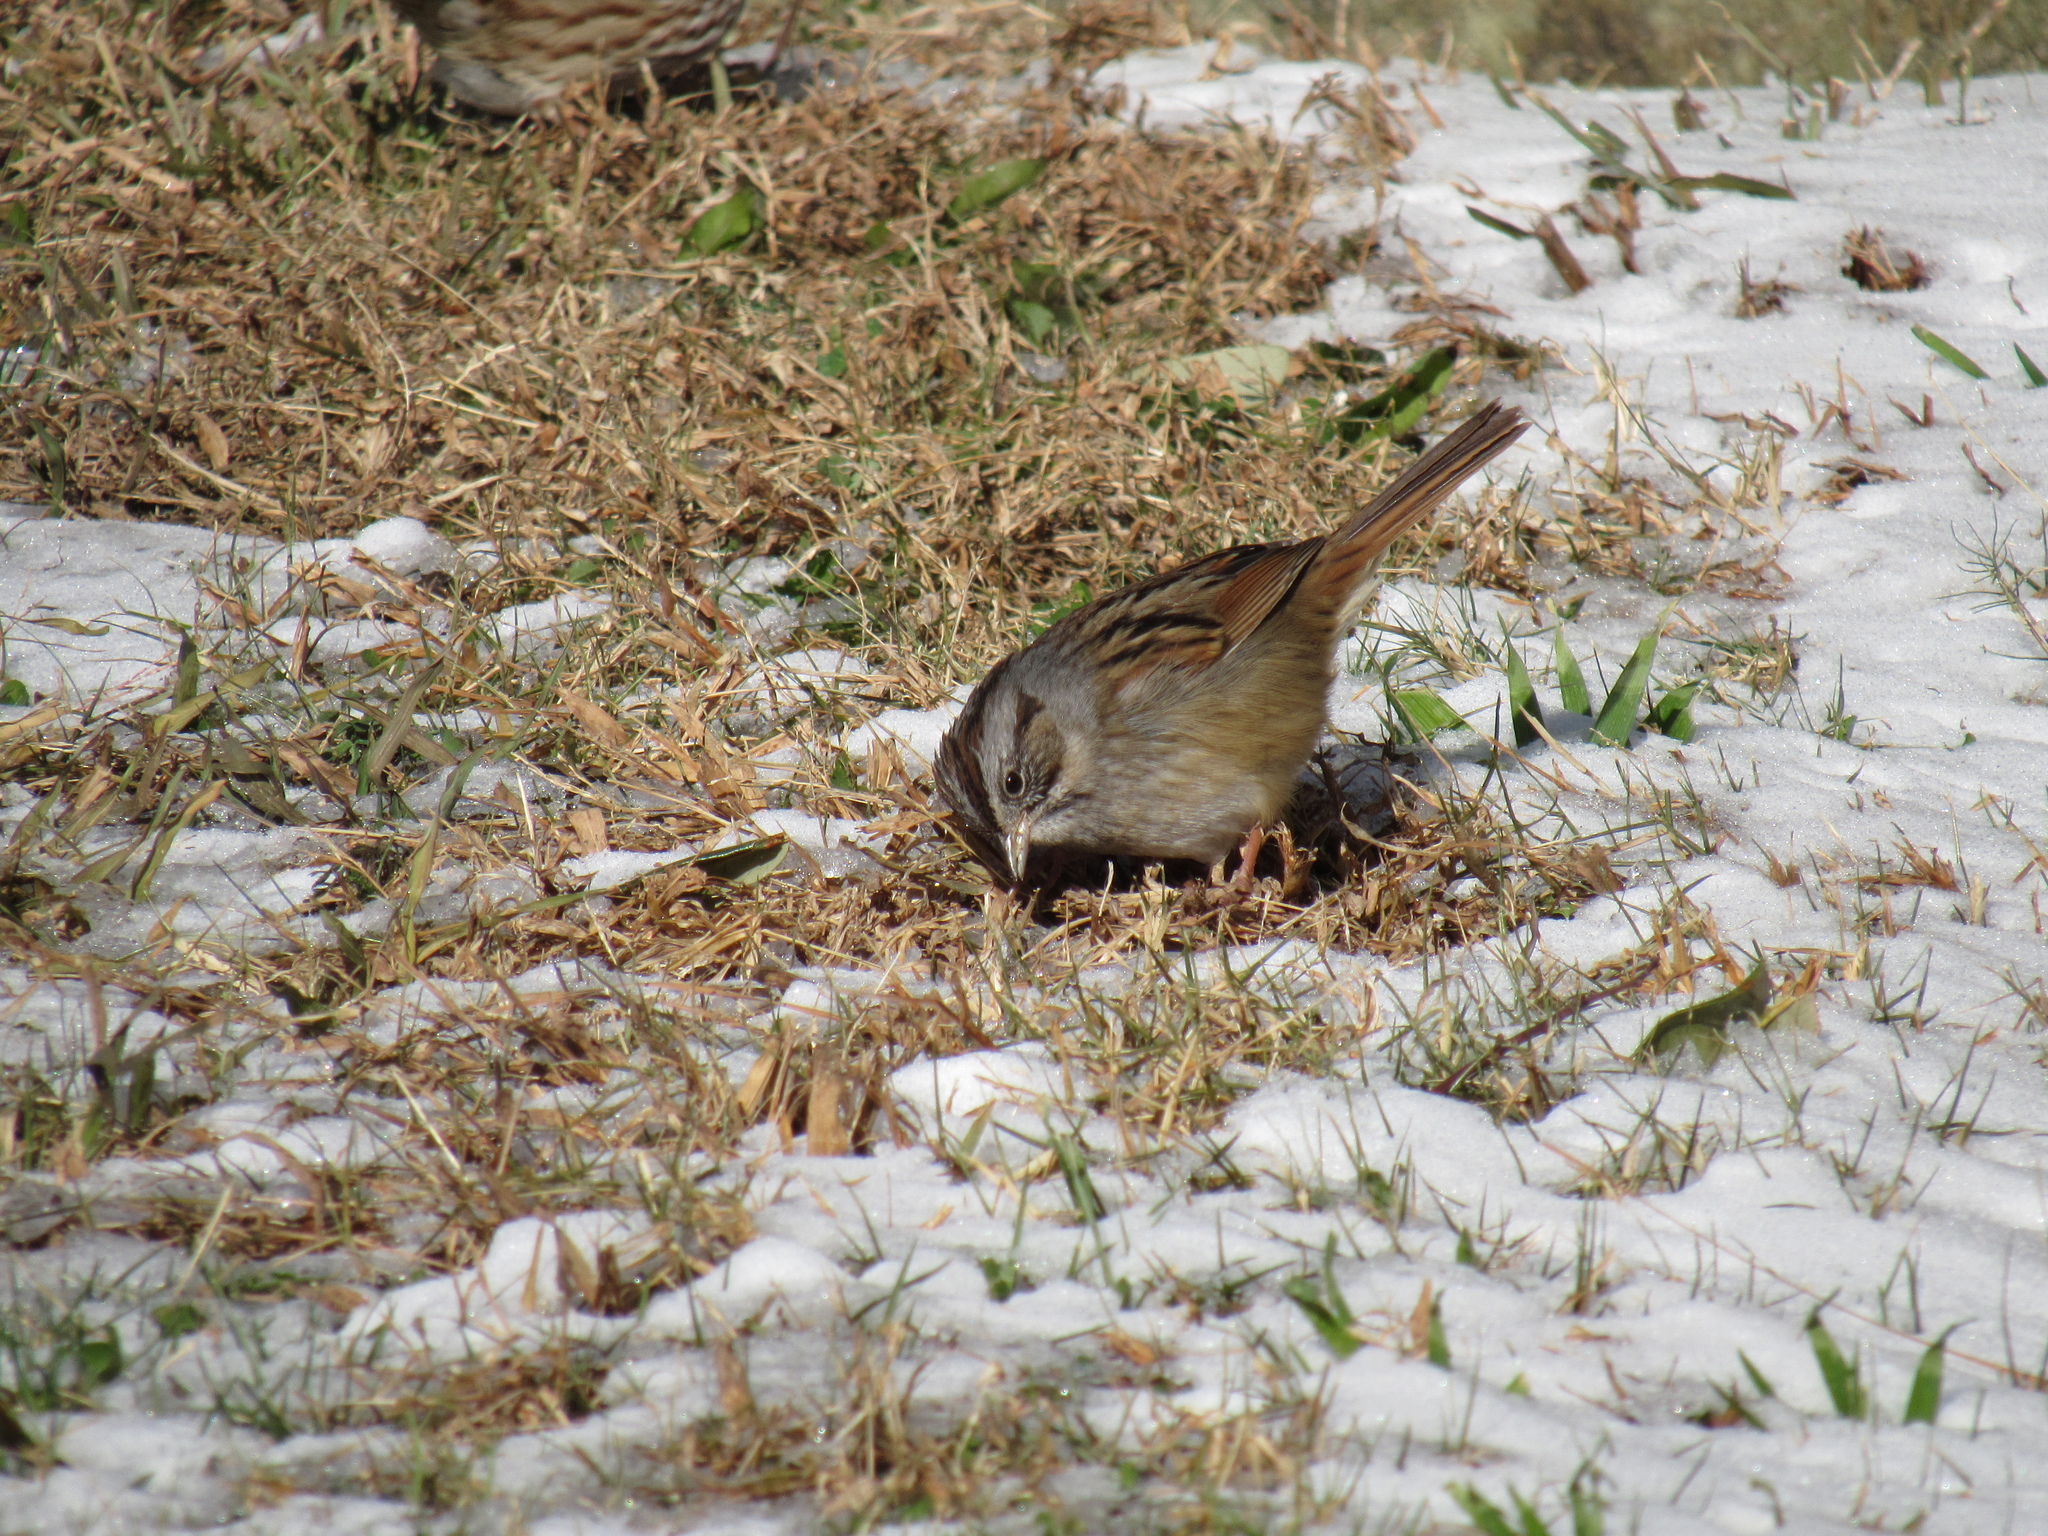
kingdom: Animalia
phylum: Chordata
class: Aves
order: Passeriformes
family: Passerellidae
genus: Melospiza
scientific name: Melospiza georgiana
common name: Swamp sparrow
